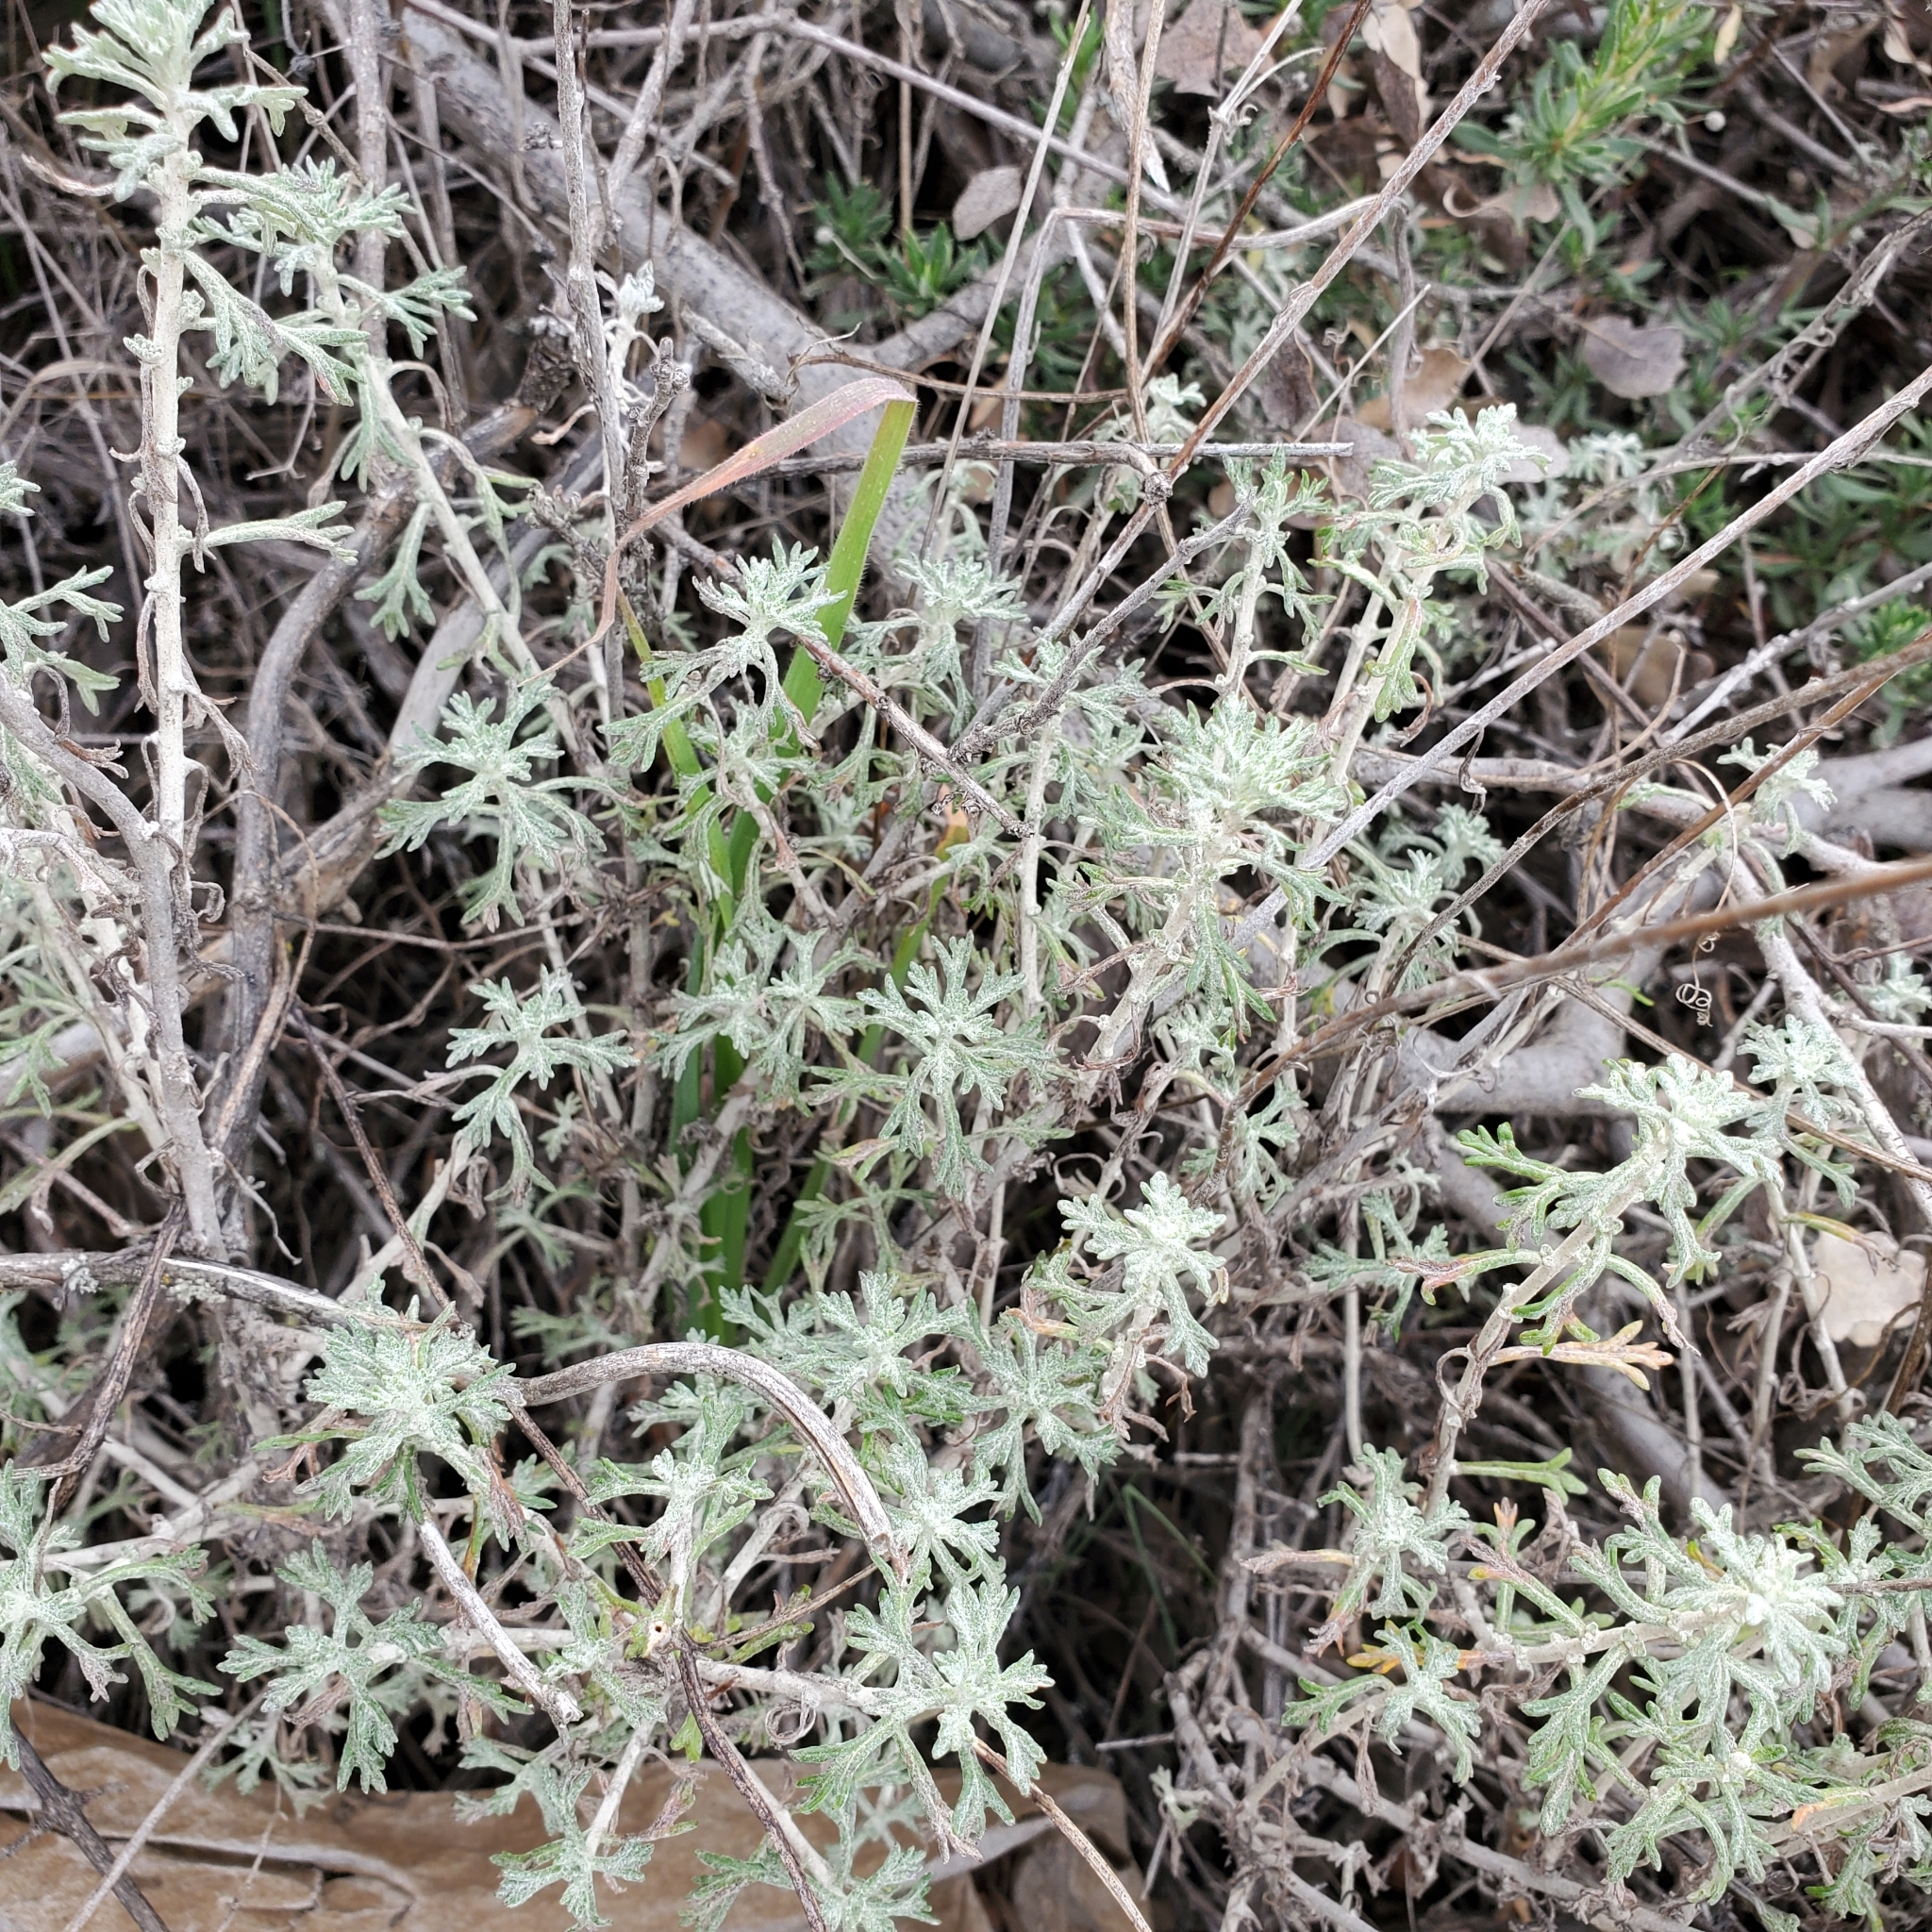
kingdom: Plantae
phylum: Tracheophyta
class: Magnoliopsida
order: Asterales
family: Asteraceae
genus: Eriophyllum
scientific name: Eriophyllum confertiflorum
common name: Golden-yarrow
